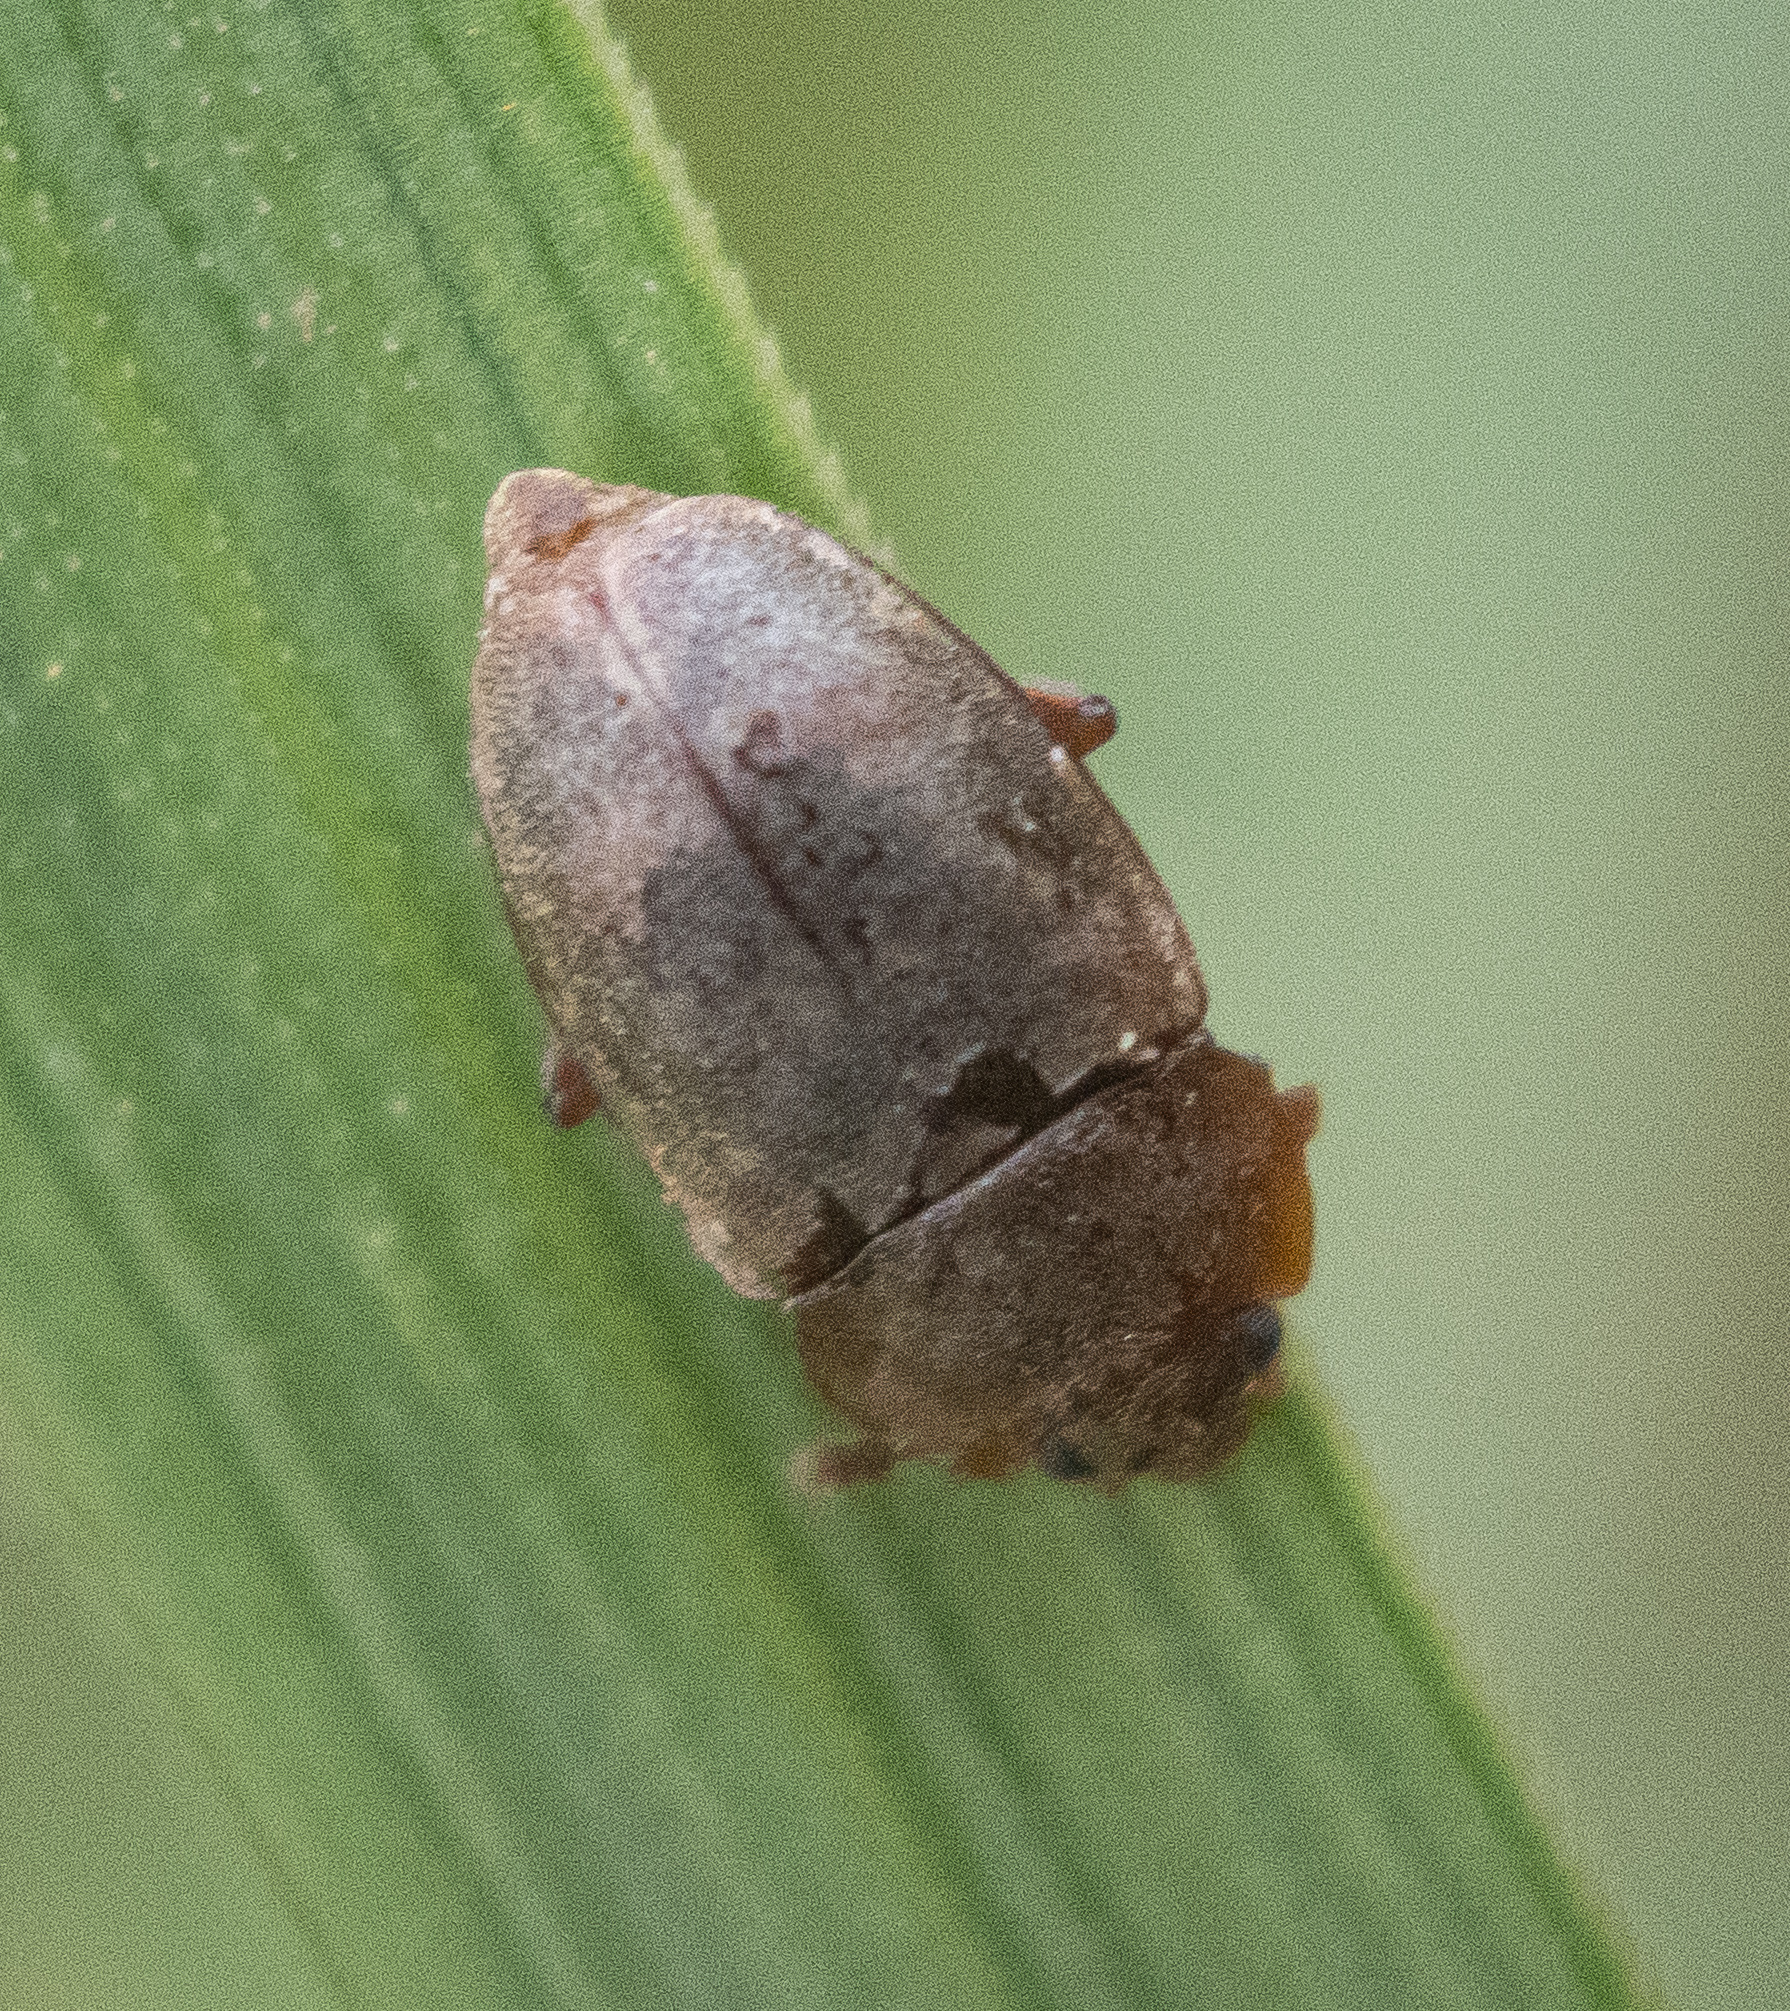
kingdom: Animalia
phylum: Arthropoda
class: Insecta
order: Coleoptera
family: Nitidulidae
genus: Epuraea
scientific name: Epuraea aestiva
